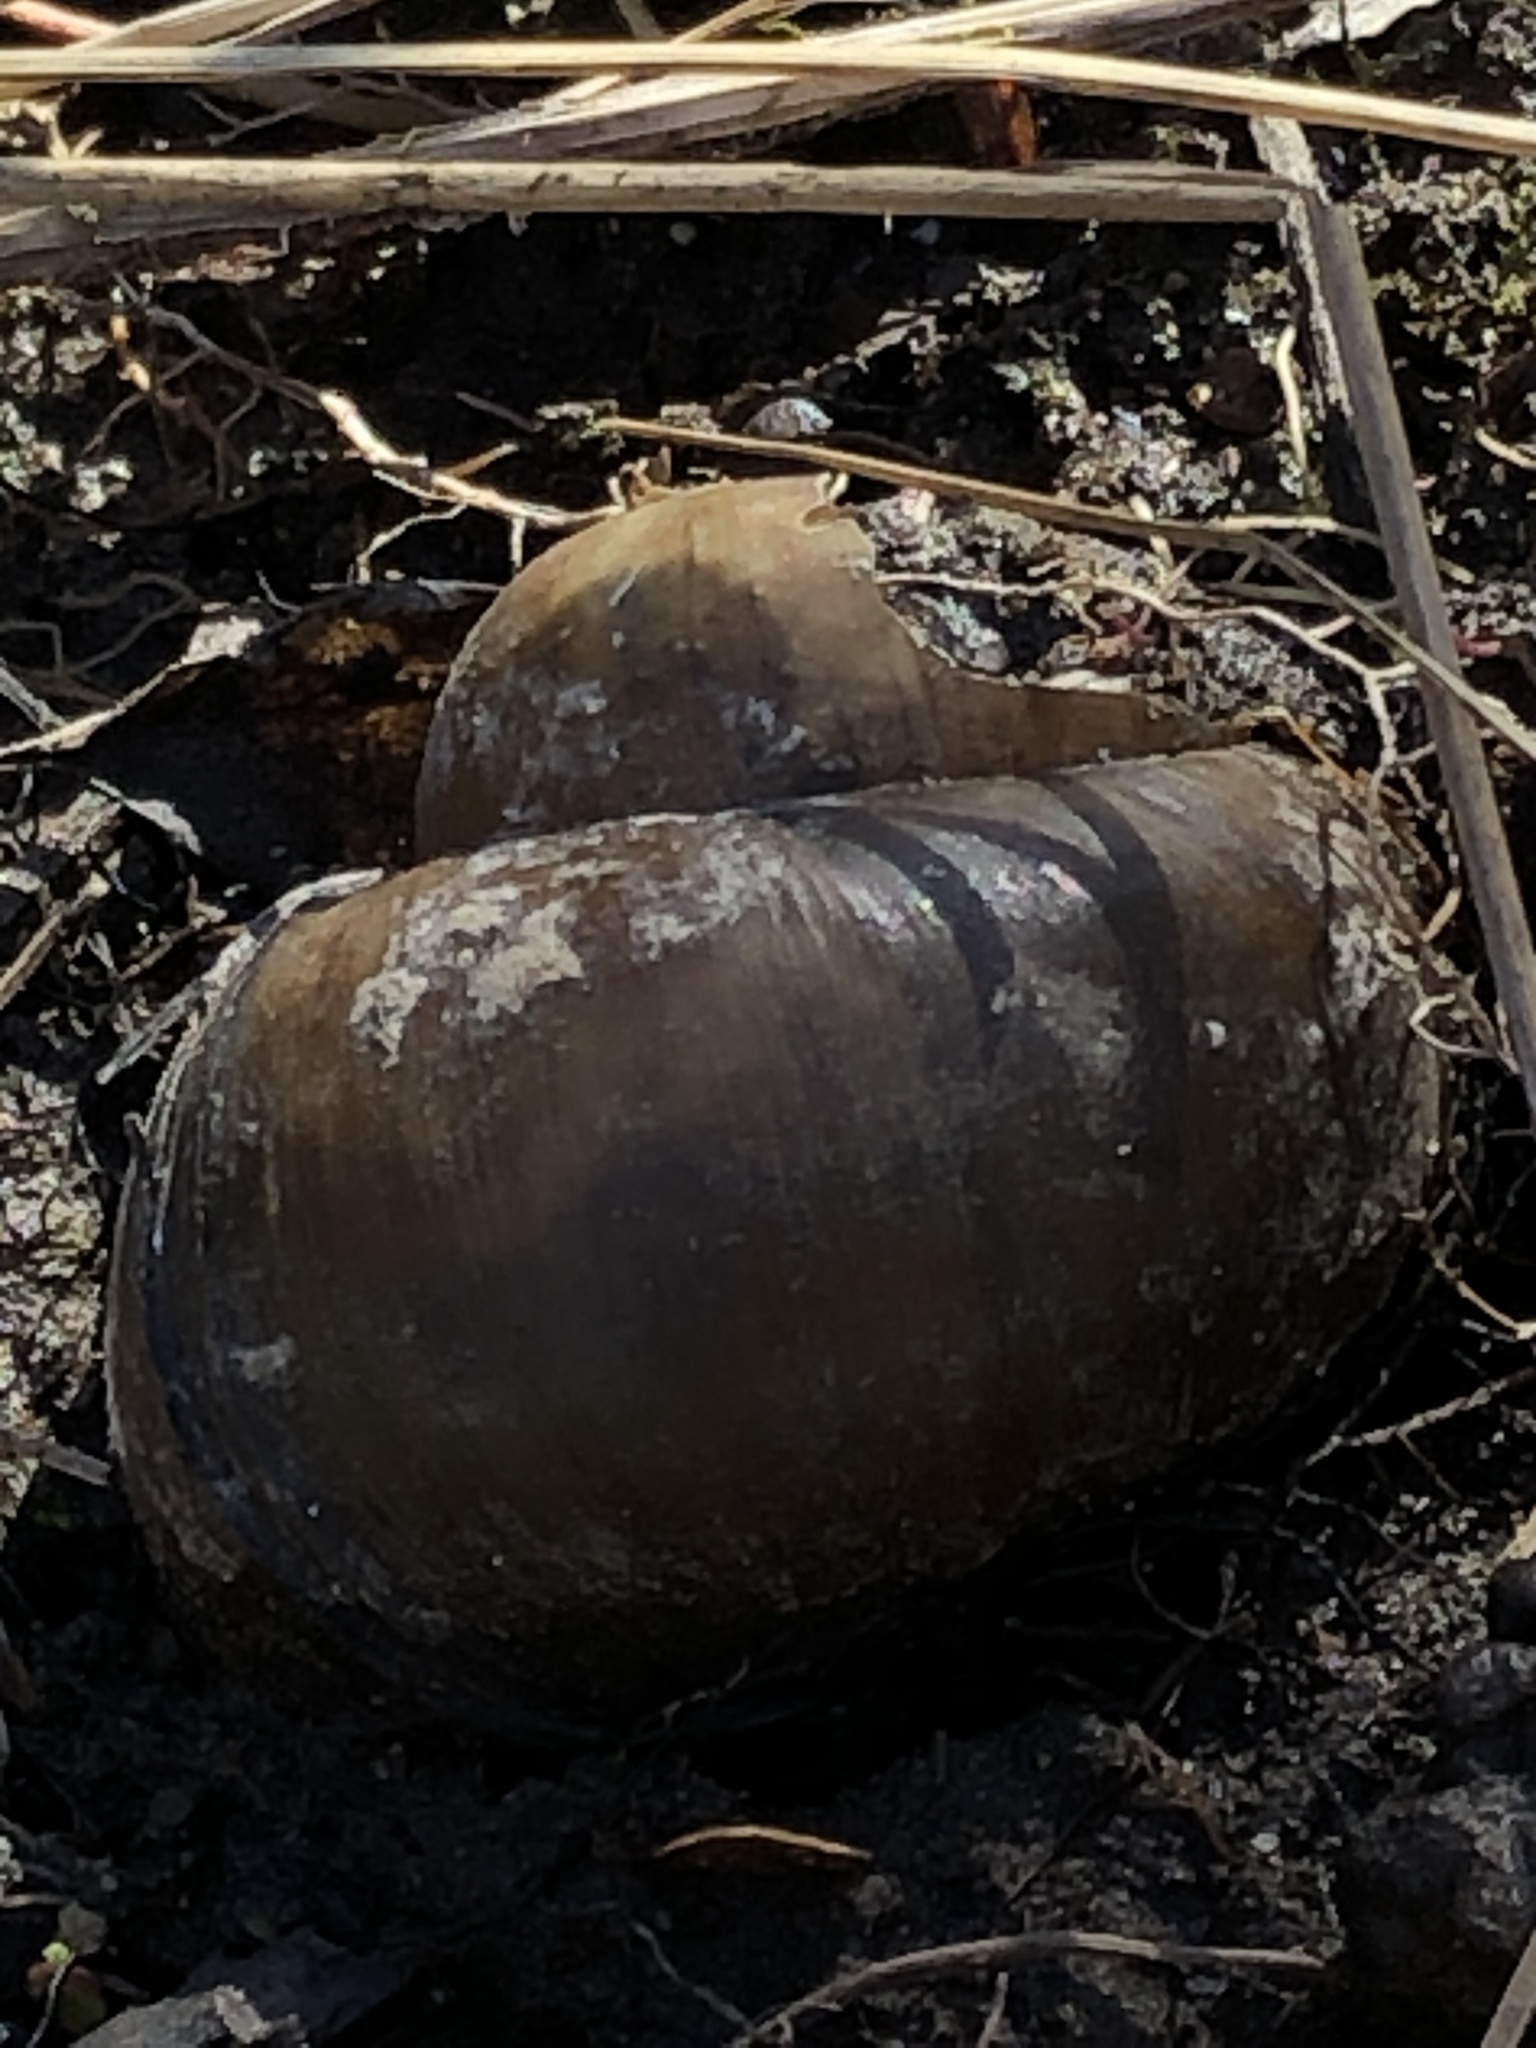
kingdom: Animalia
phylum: Mollusca
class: Gastropoda
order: Architaenioglossa
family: Viviparidae
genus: Cipangopaludina
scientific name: Cipangopaludina chinensis
